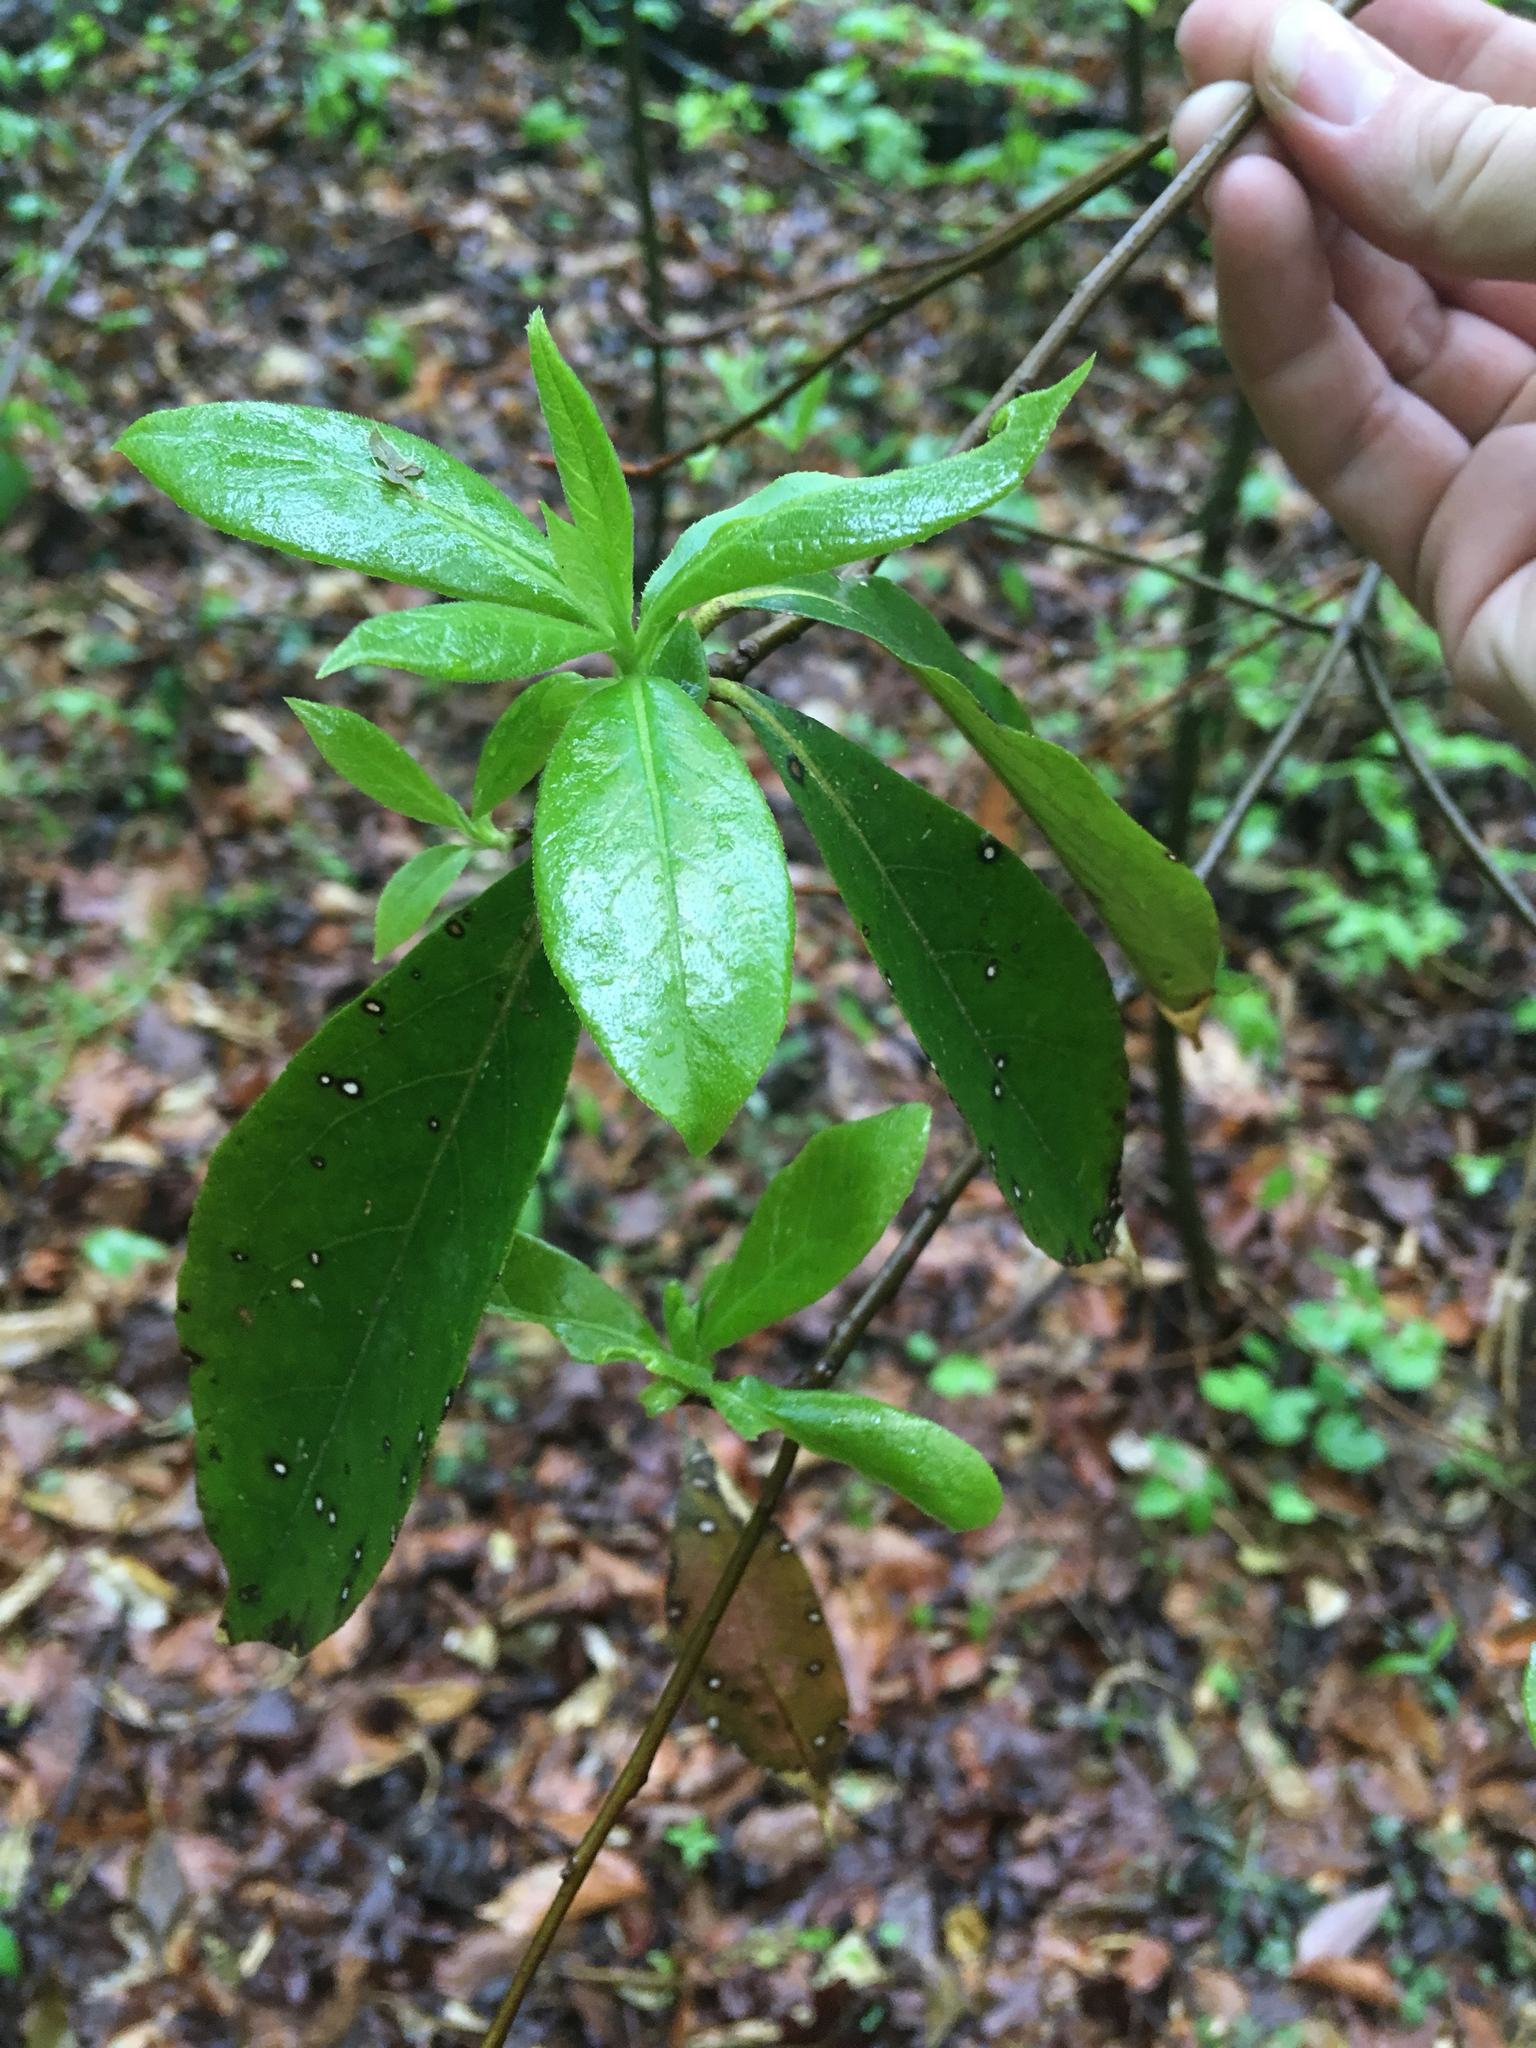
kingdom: Plantae
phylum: Tracheophyta
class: Magnoliopsida
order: Ericales
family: Symplocaceae
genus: Symplocos
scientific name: Symplocos tinctoria
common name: Horse-sugar
